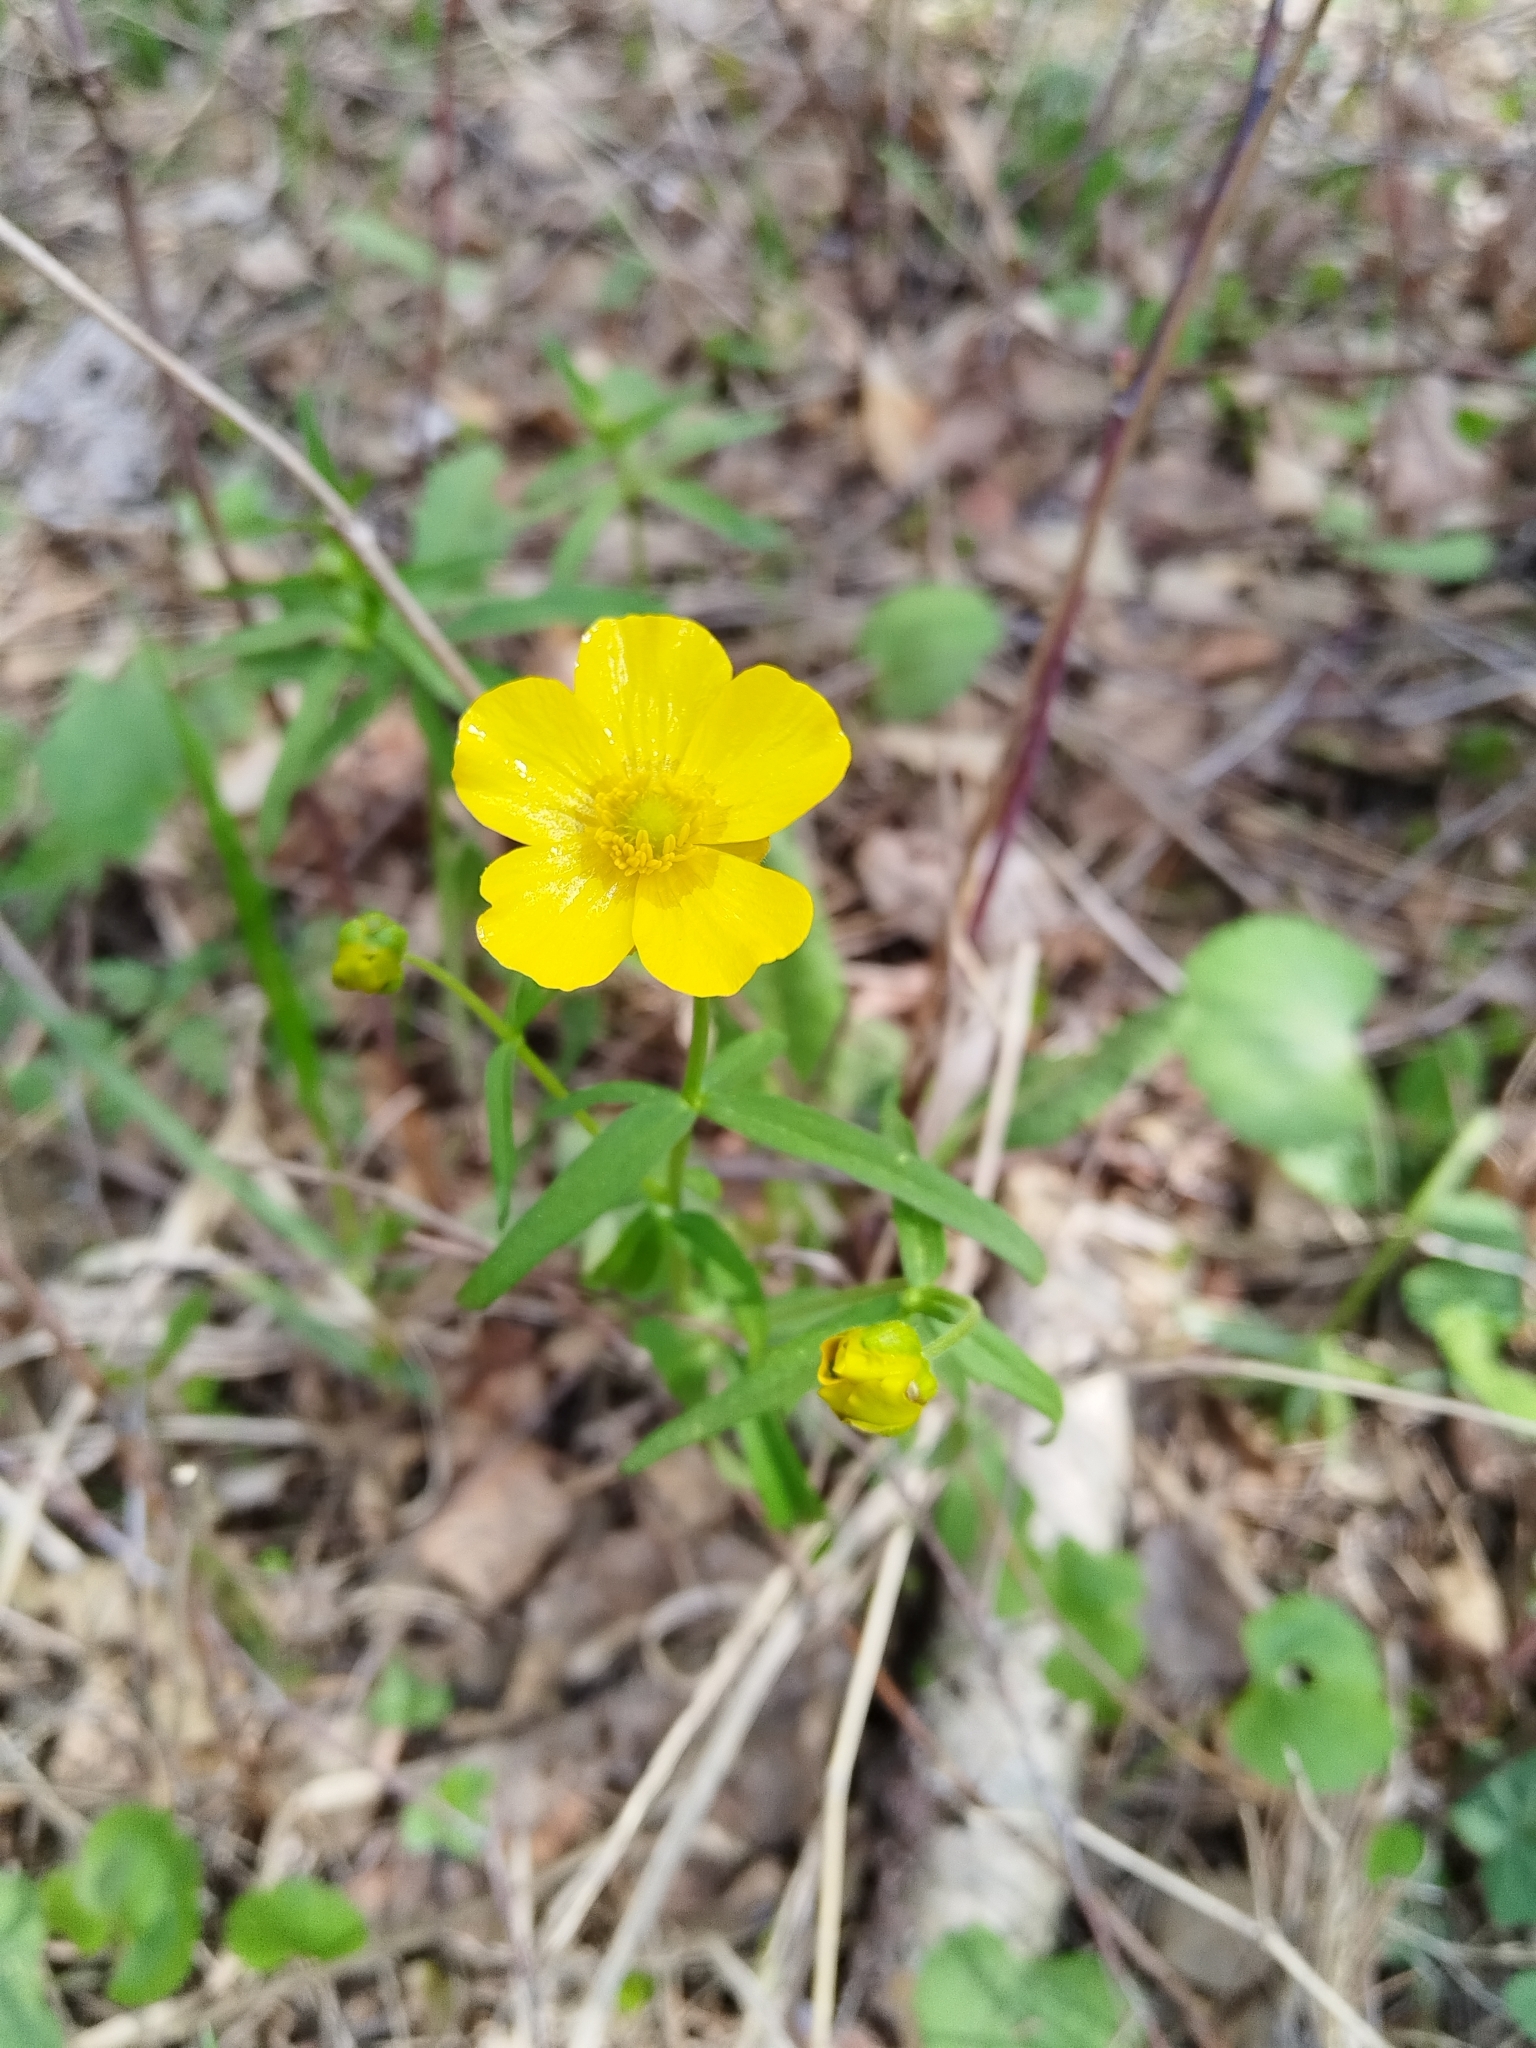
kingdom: Plantae
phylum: Tracheophyta
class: Magnoliopsida
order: Ranunculales
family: Ranunculaceae
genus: Ranunculus
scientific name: Ranunculus cassubicus
